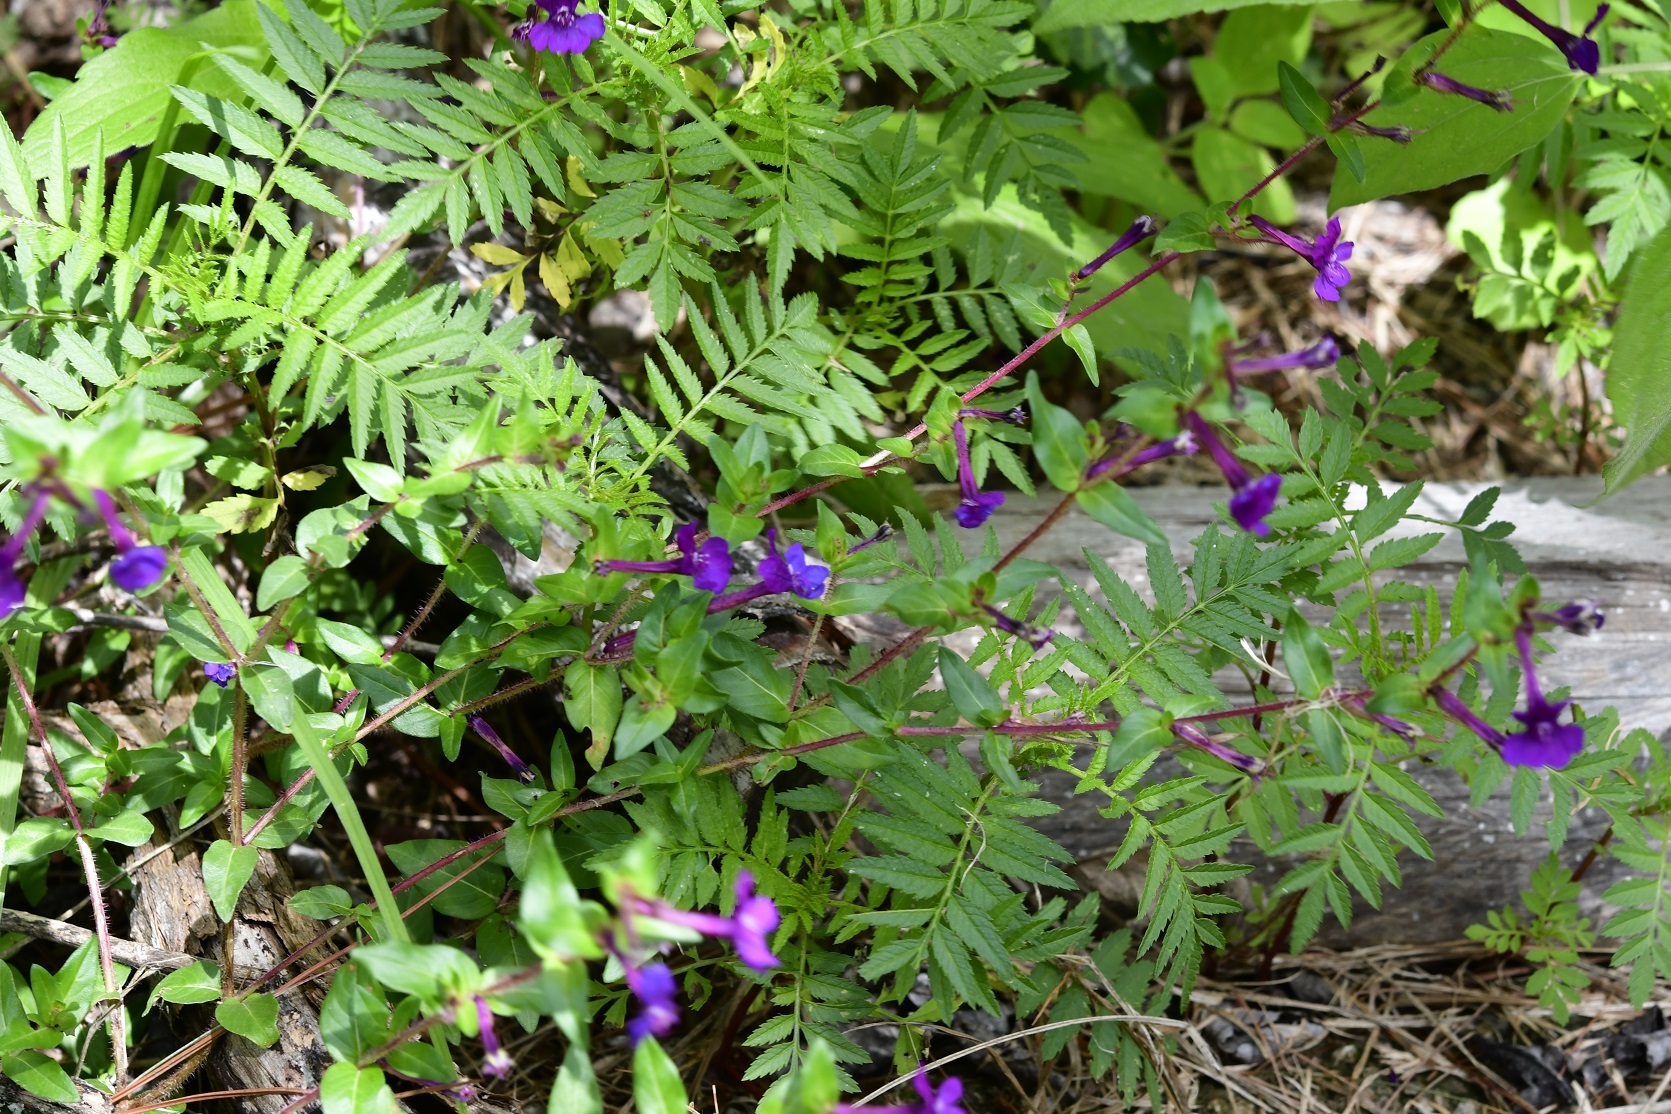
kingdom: Plantae
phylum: Tracheophyta
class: Magnoliopsida
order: Myrtales
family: Lythraceae
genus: Cuphea
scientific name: Cuphea aequipetala
